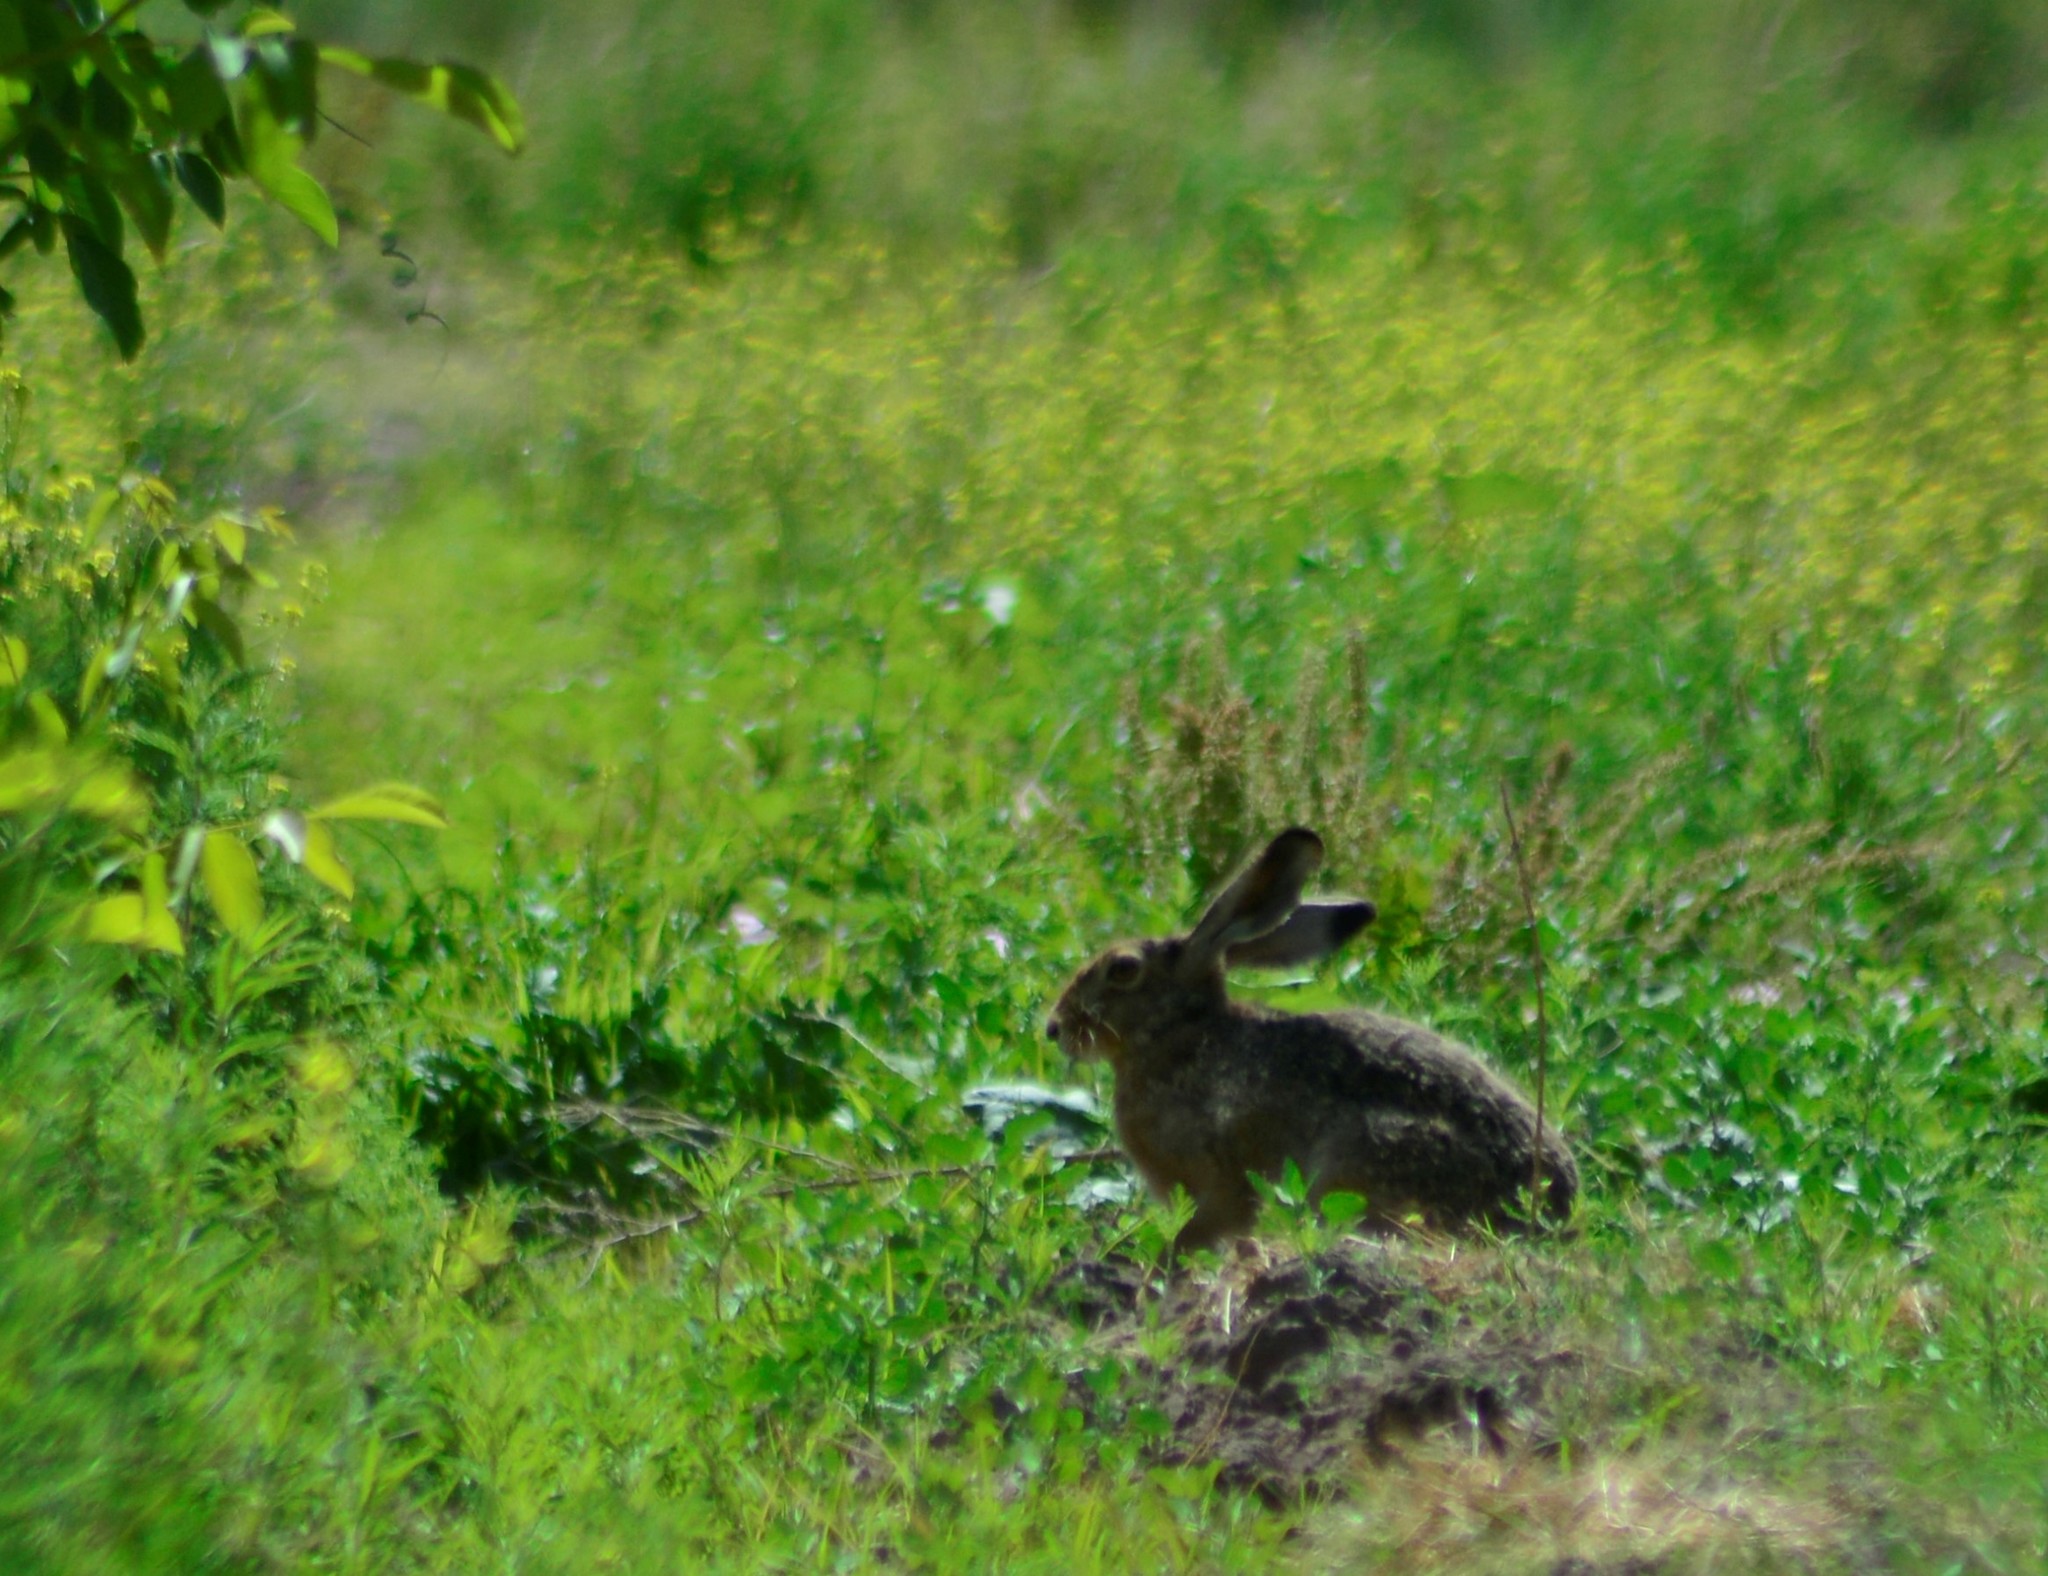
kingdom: Animalia
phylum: Chordata
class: Mammalia
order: Lagomorpha
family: Leporidae
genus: Lepus
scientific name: Lepus europaeus
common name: European hare
